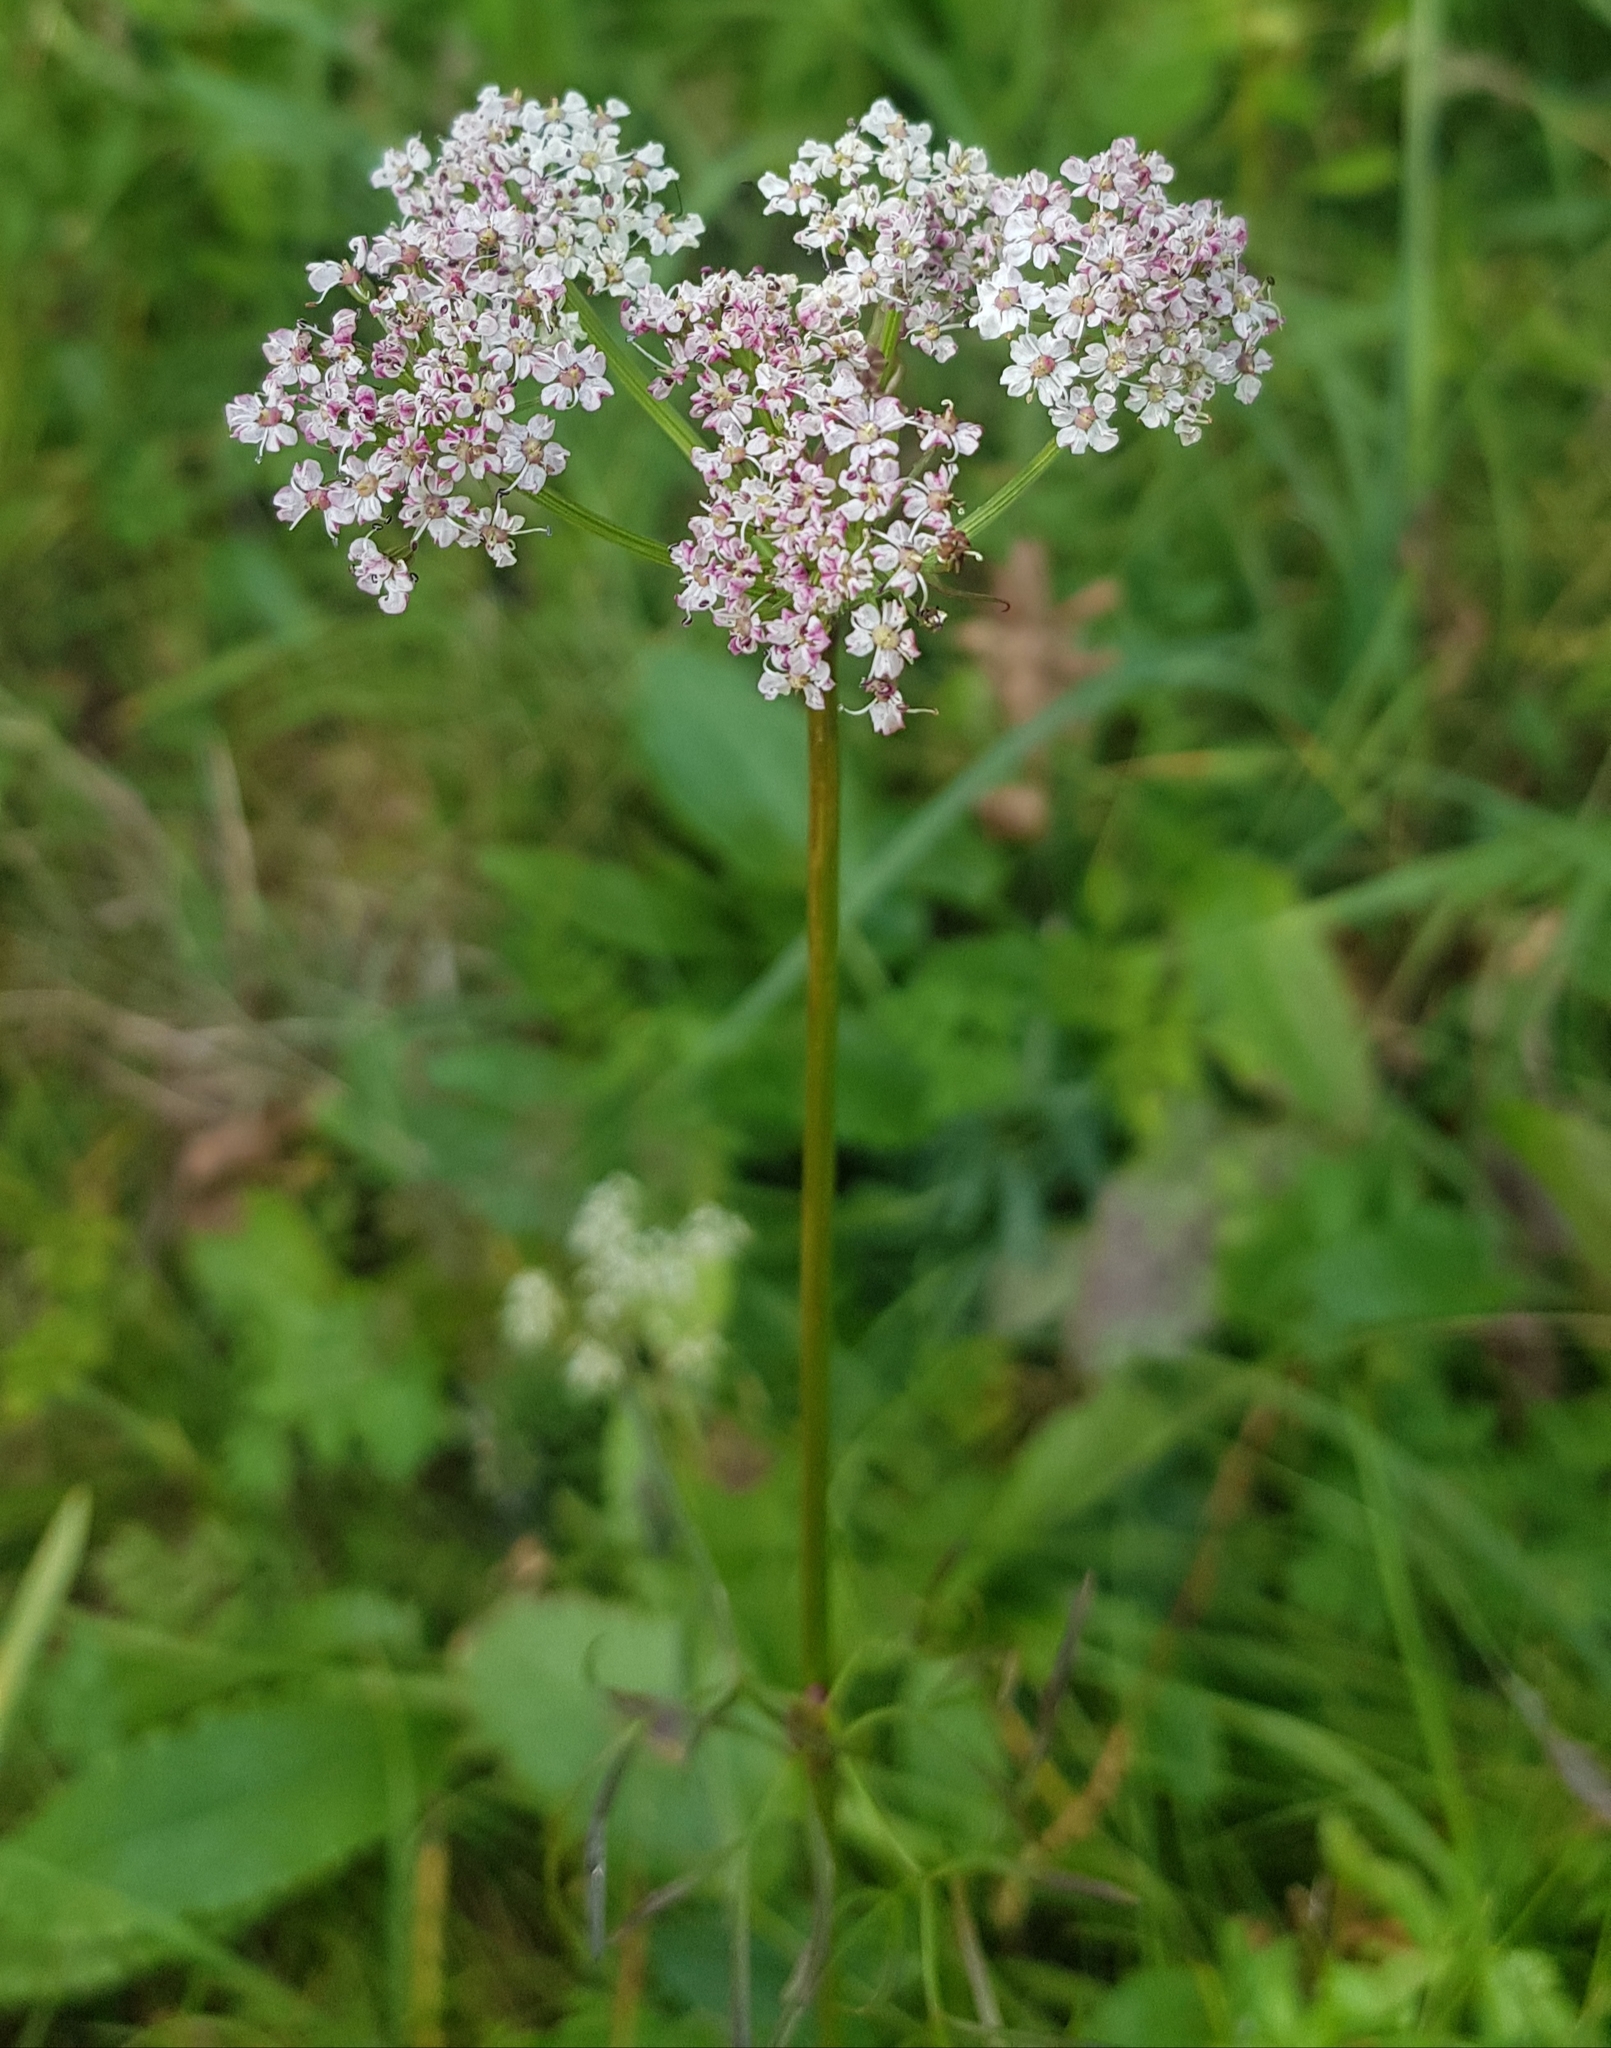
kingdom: Plantae
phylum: Tracheophyta
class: Magnoliopsida
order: Apiales
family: Apiaceae
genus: Ostericum
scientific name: Ostericum tenuifolium
